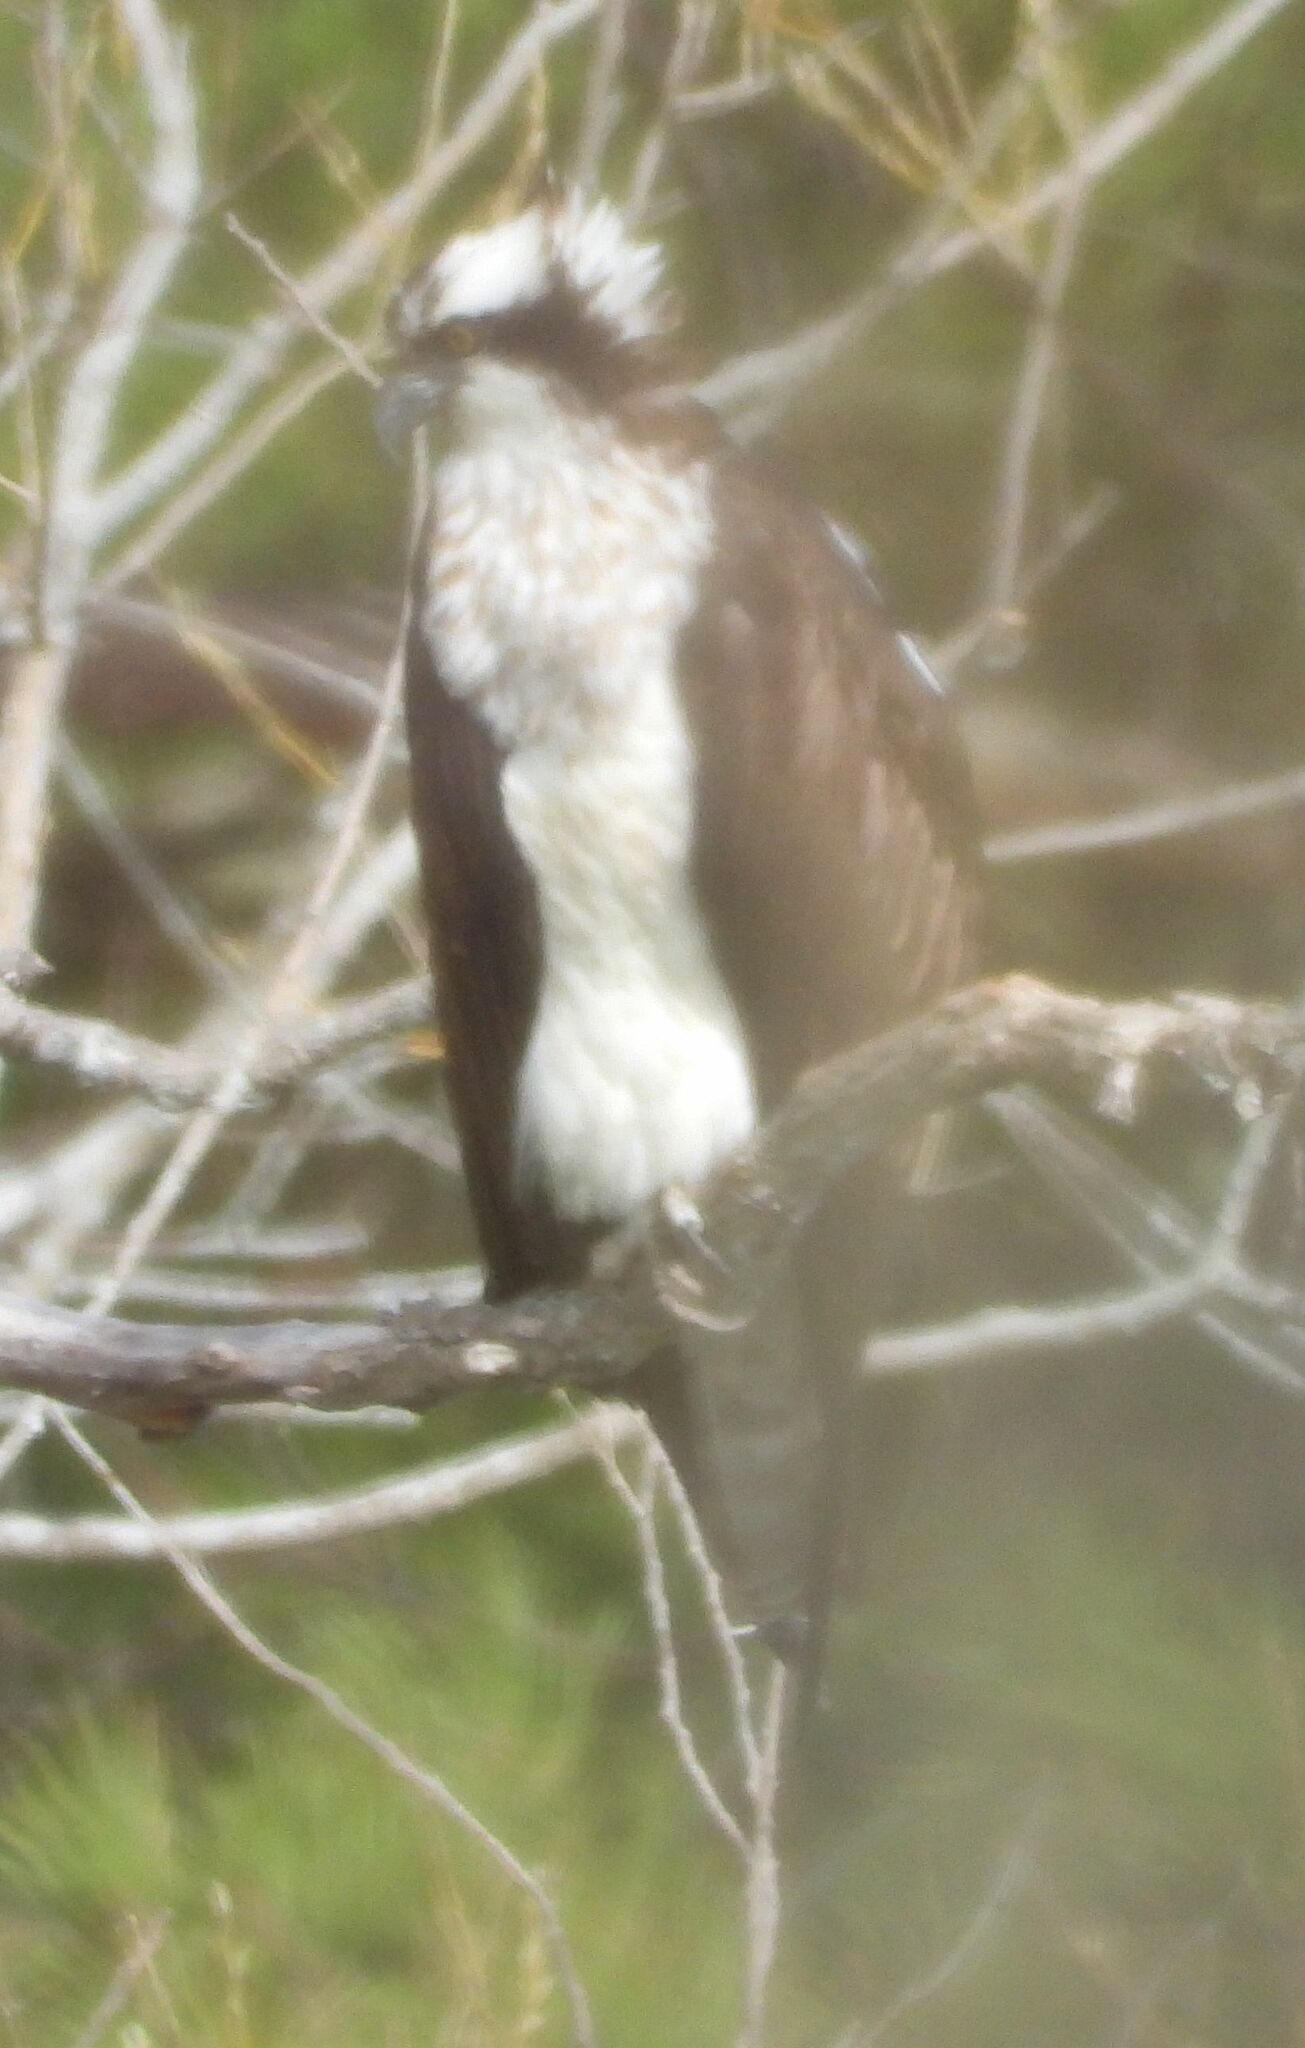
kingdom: Animalia
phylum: Chordata
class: Aves
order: Accipitriformes
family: Pandionidae
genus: Pandion
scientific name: Pandion haliaetus
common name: Osprey
